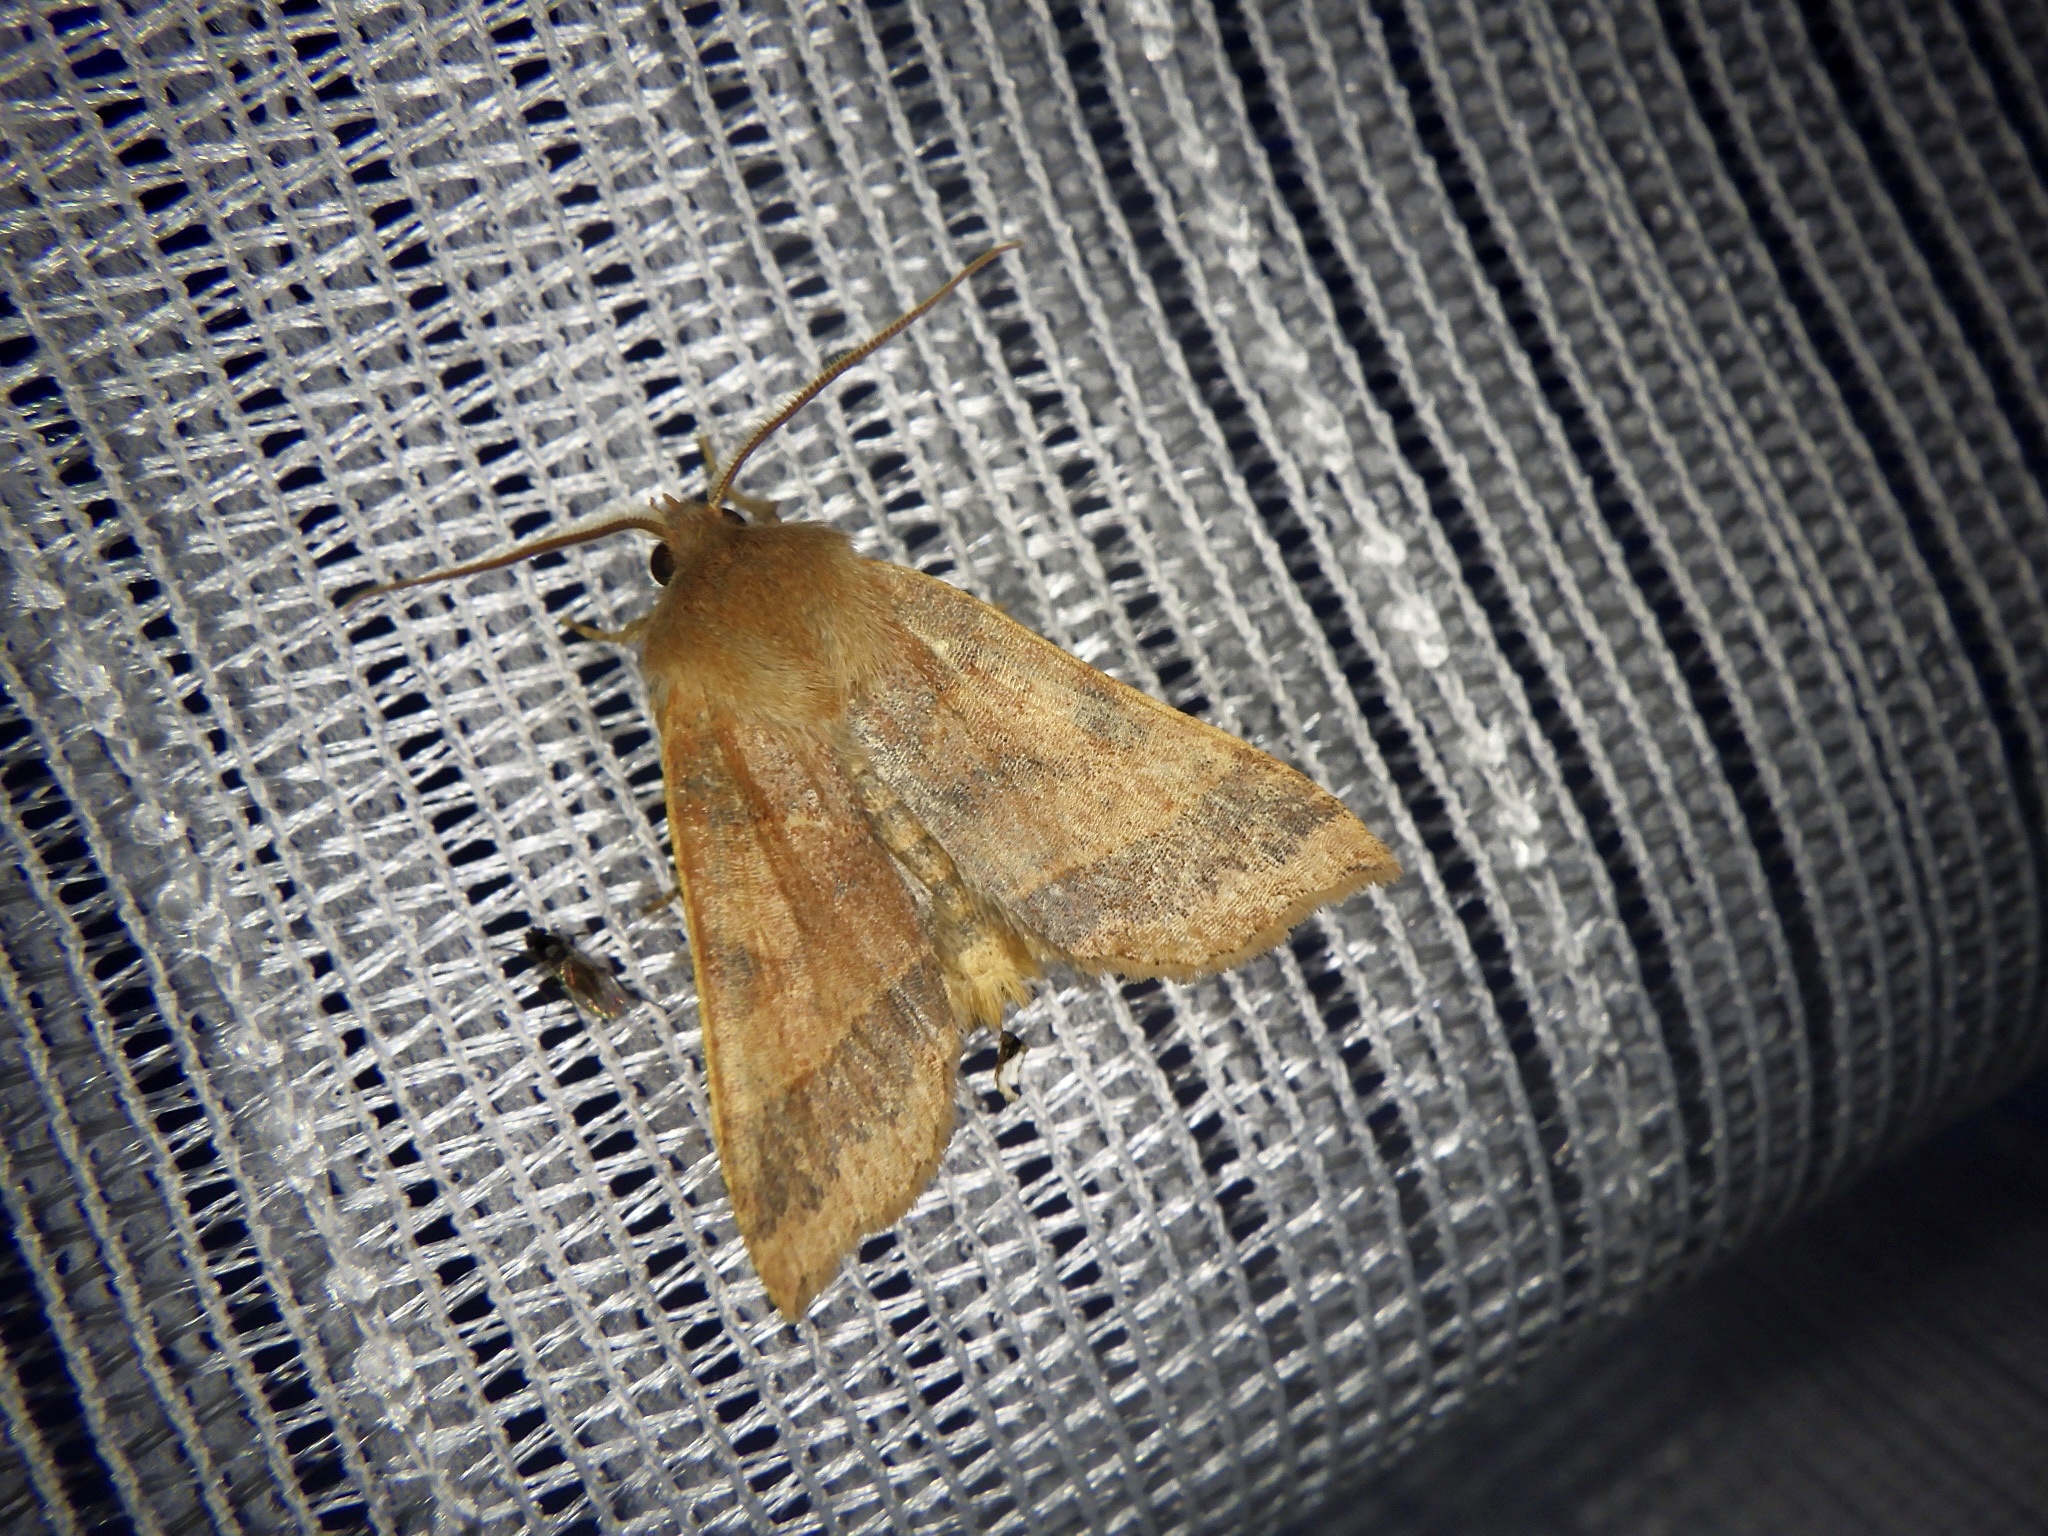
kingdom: Animalia
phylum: Arthropoda
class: Insecta
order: Lepidoptera
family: Noctuidae
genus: Telorta
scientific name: Telorta edentata
